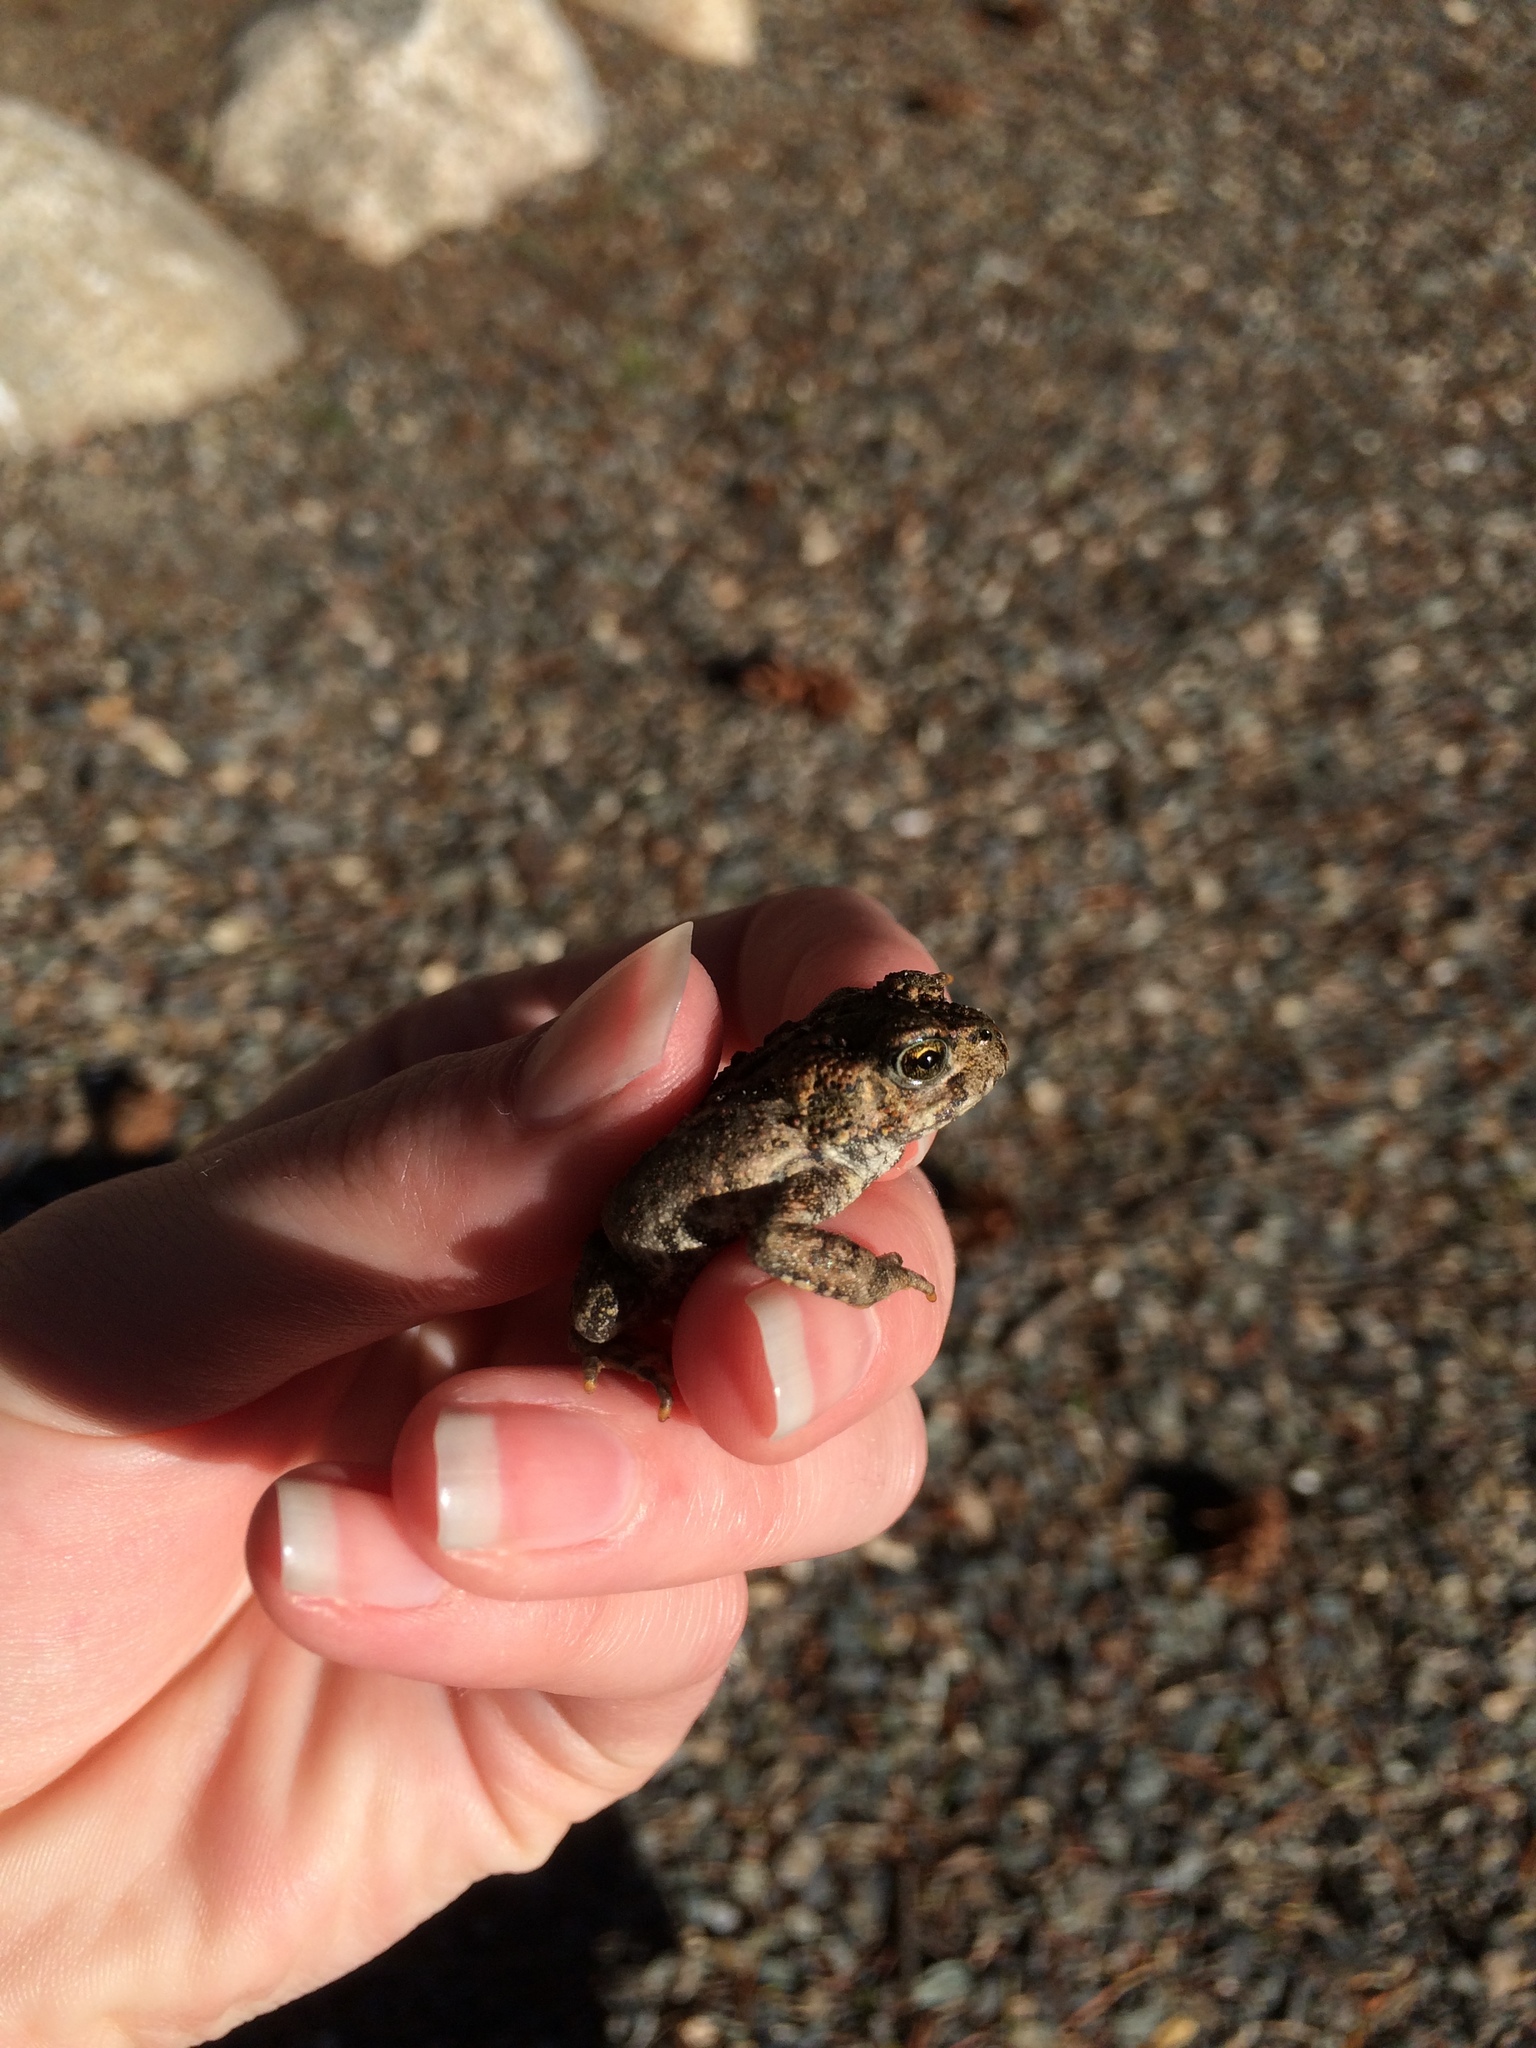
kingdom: Animalia
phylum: Chordata
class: Amphibia
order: Anura
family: Bufonidae
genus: Anaxyrus
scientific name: Anaxyrus boreas
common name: Western toad
